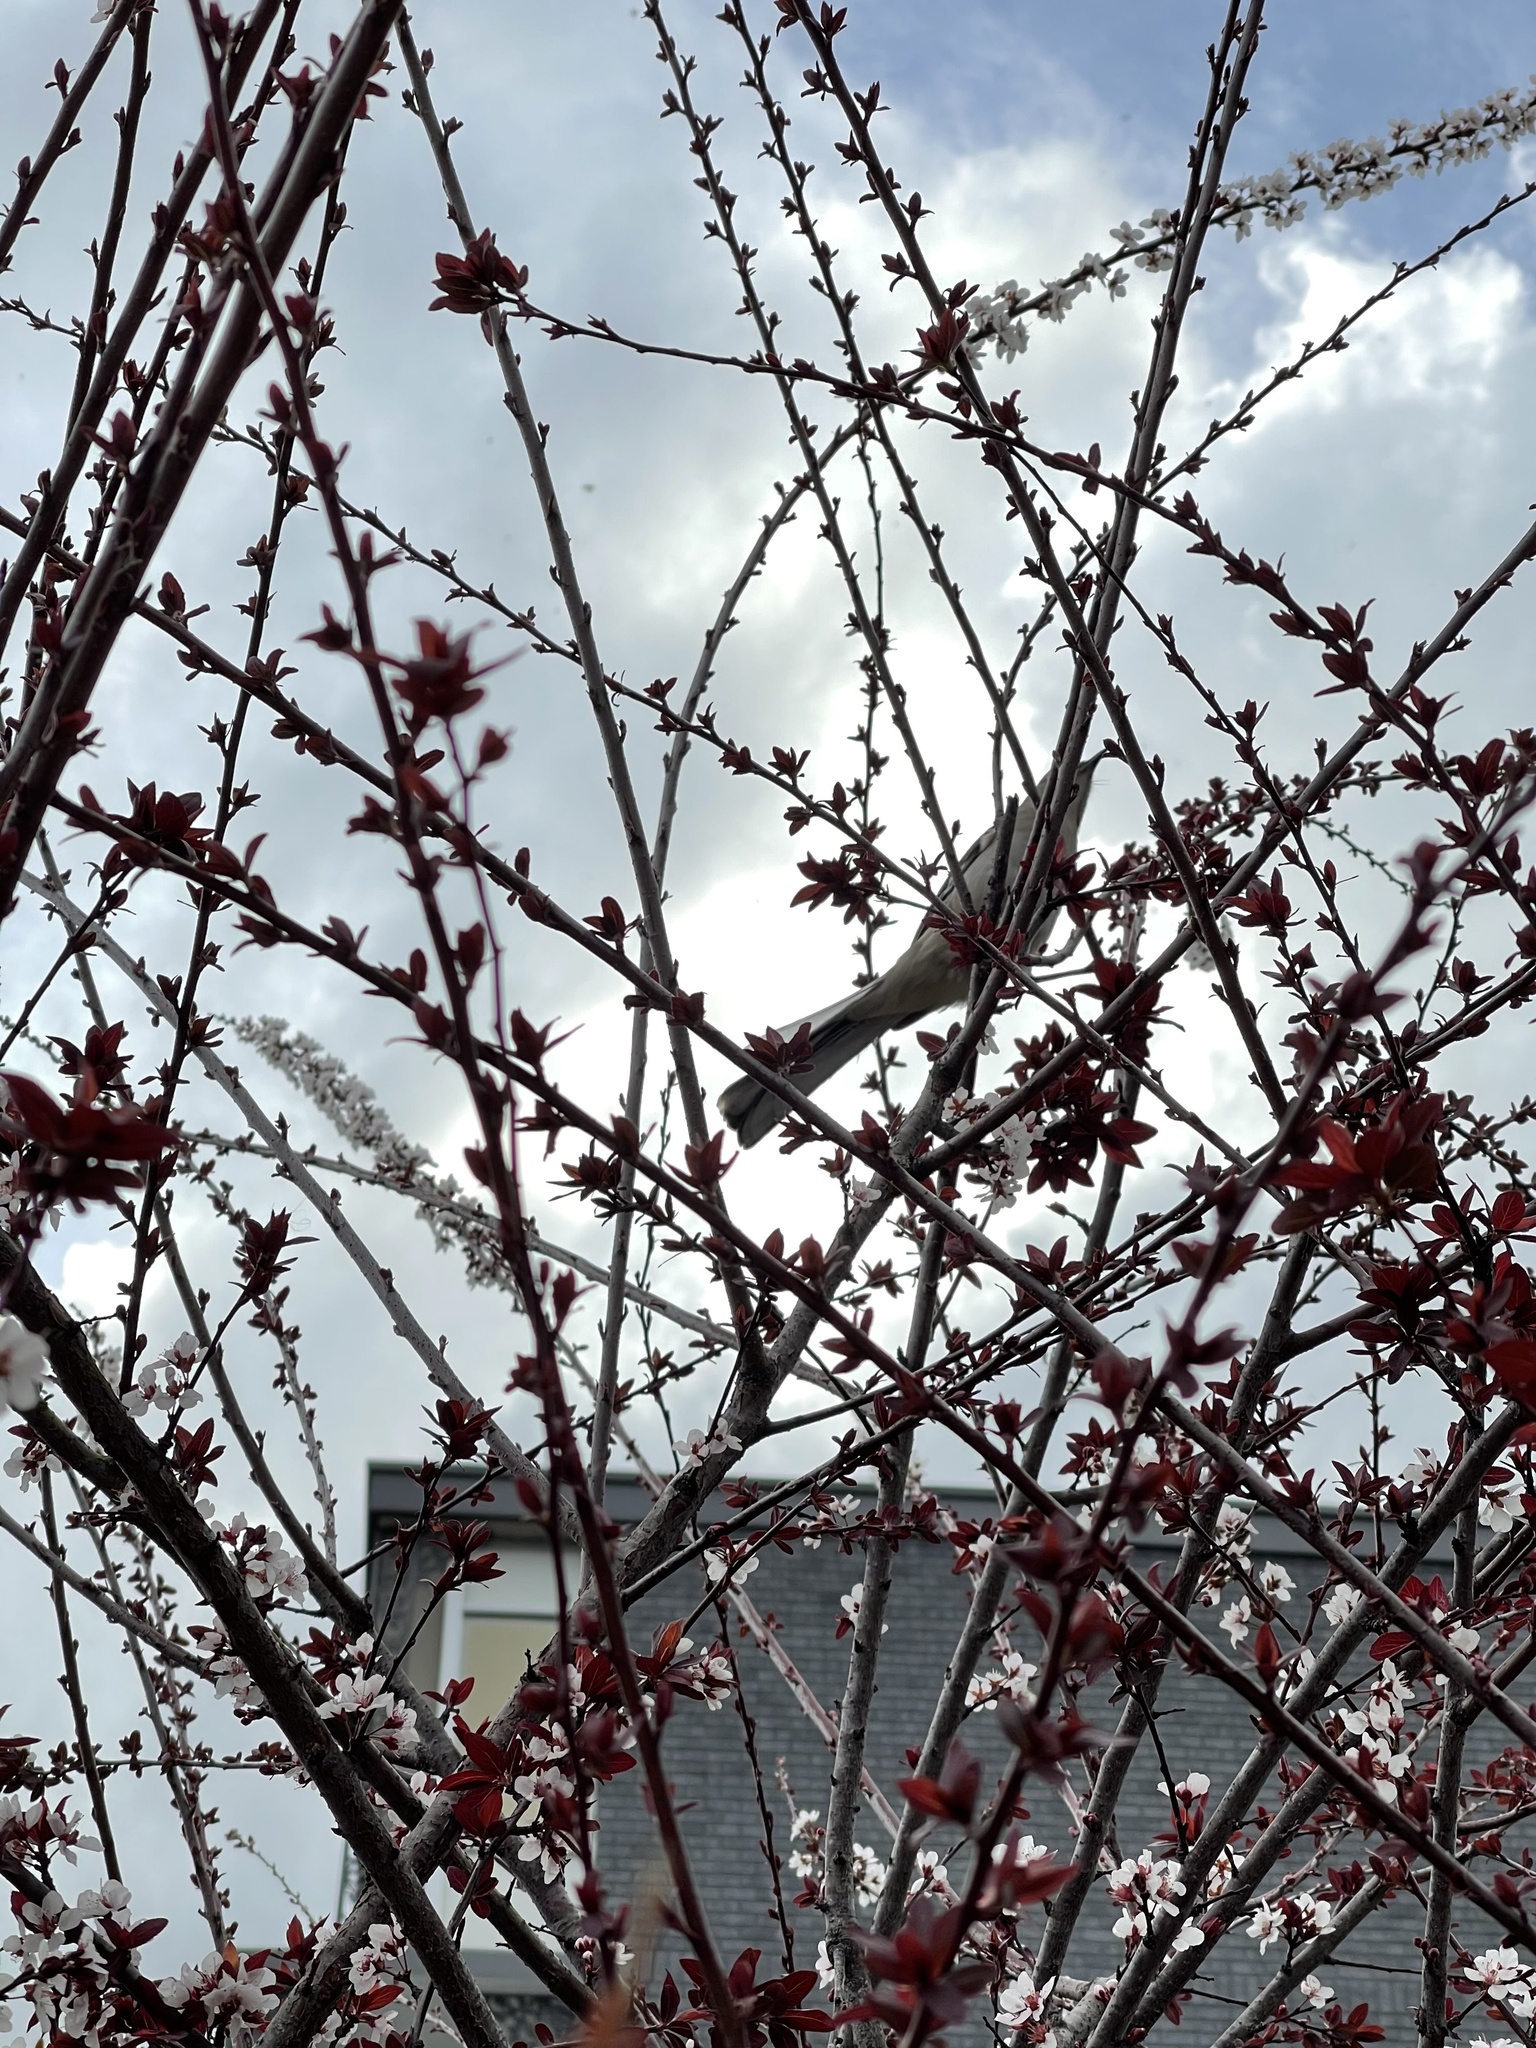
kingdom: Animalia
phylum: Chordata
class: Aves
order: Passeriformes
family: Mimidae
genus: Mimus
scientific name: Mimus polyglottos
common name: Northern mockingbird
